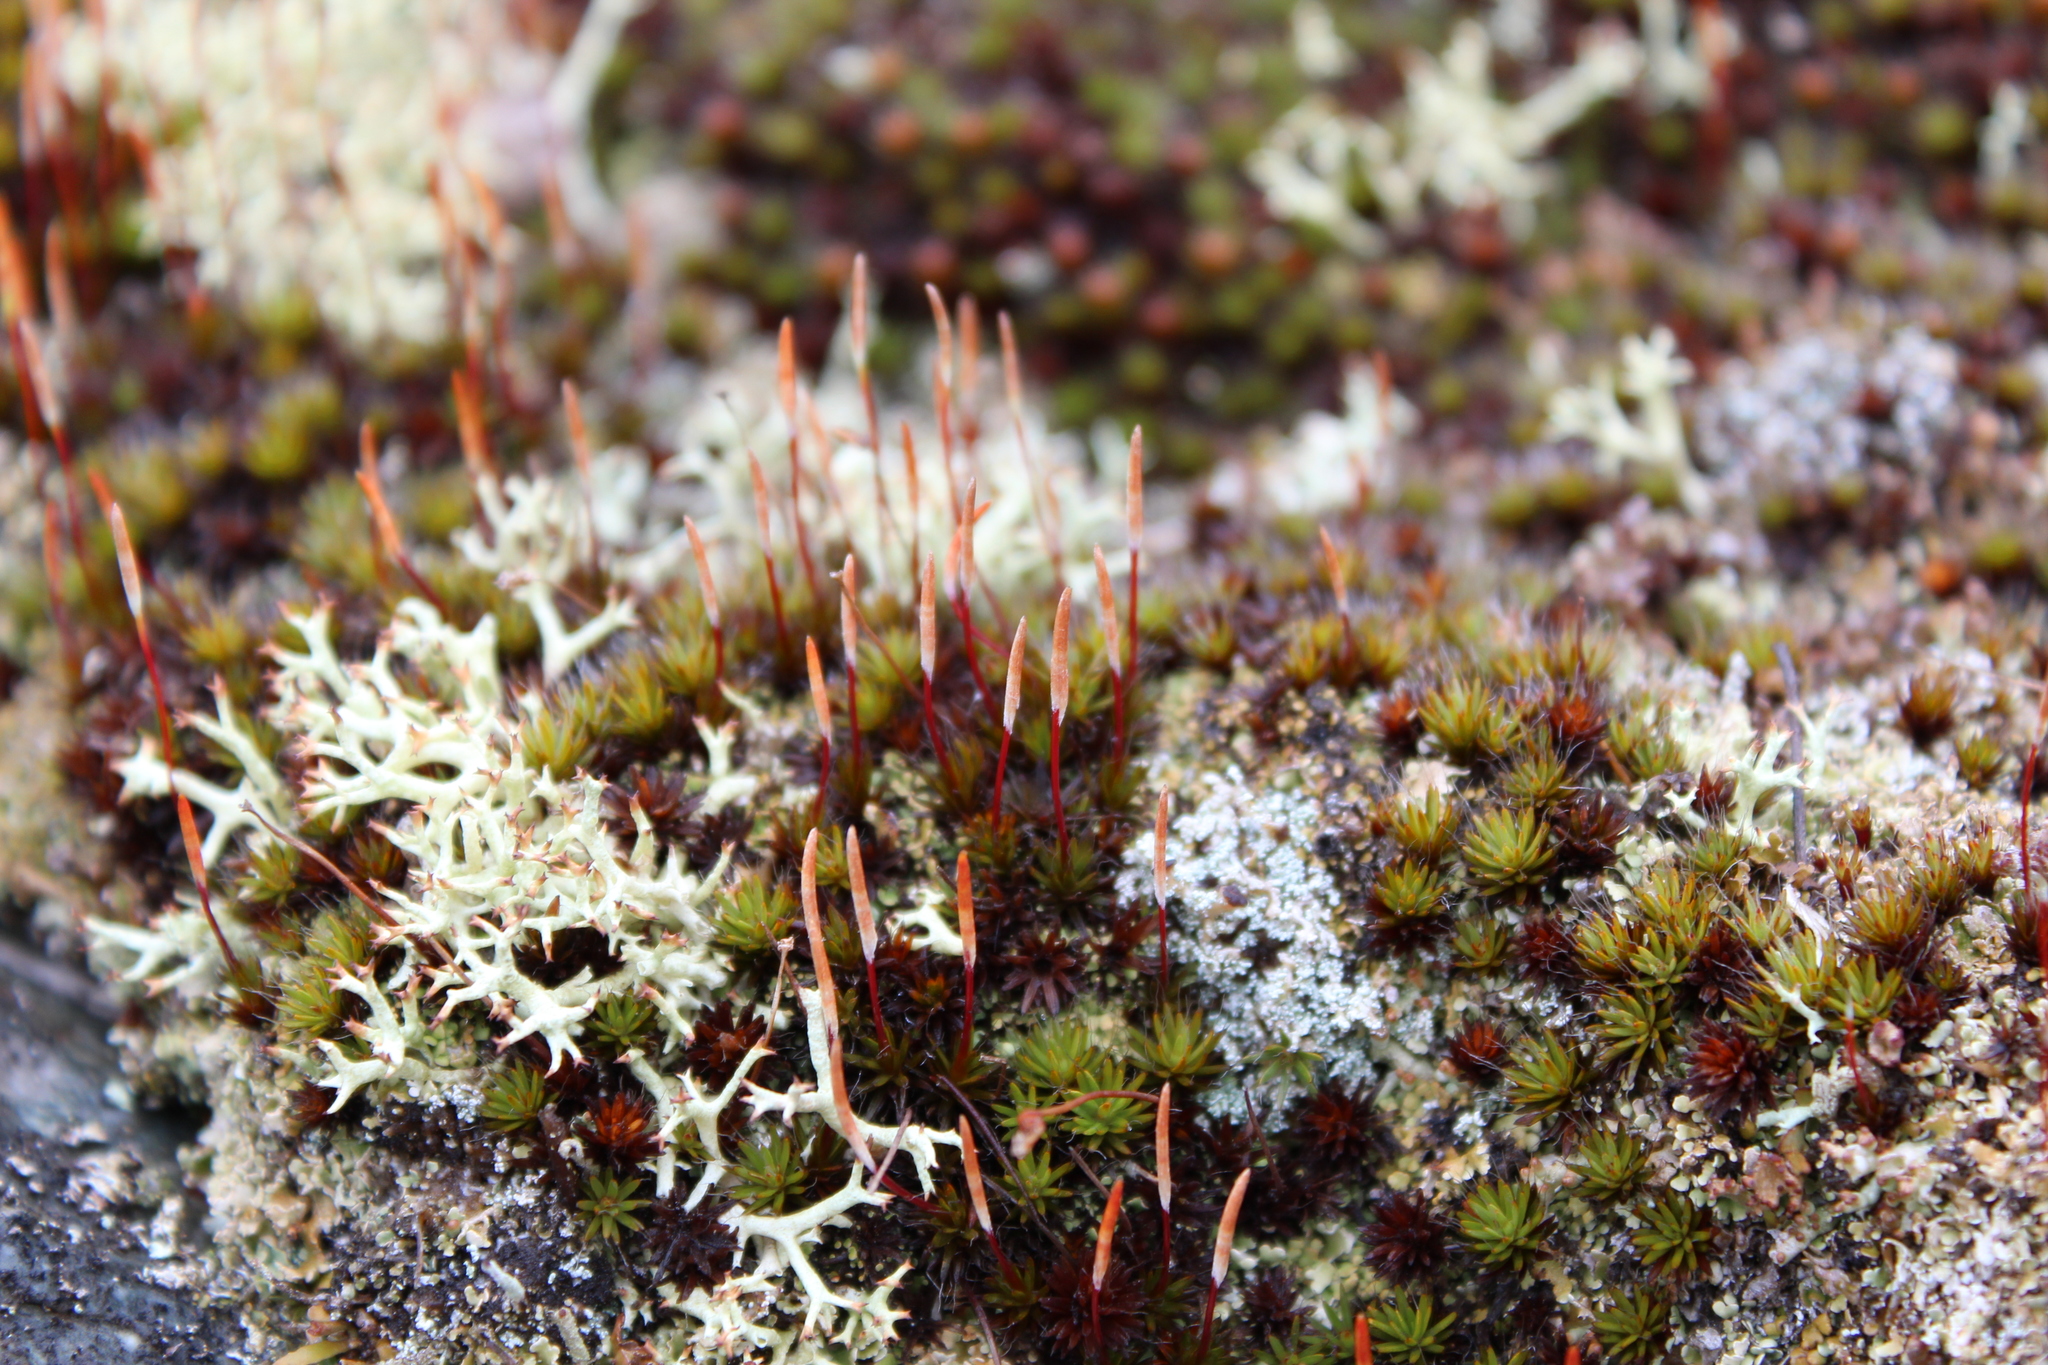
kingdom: Plantae
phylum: Bryophyta
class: Polytrichopsida
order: Polytrichales
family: Polytrichaceae
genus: Polytrichum
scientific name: Polytrichum piliferum
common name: Bristly haircap
